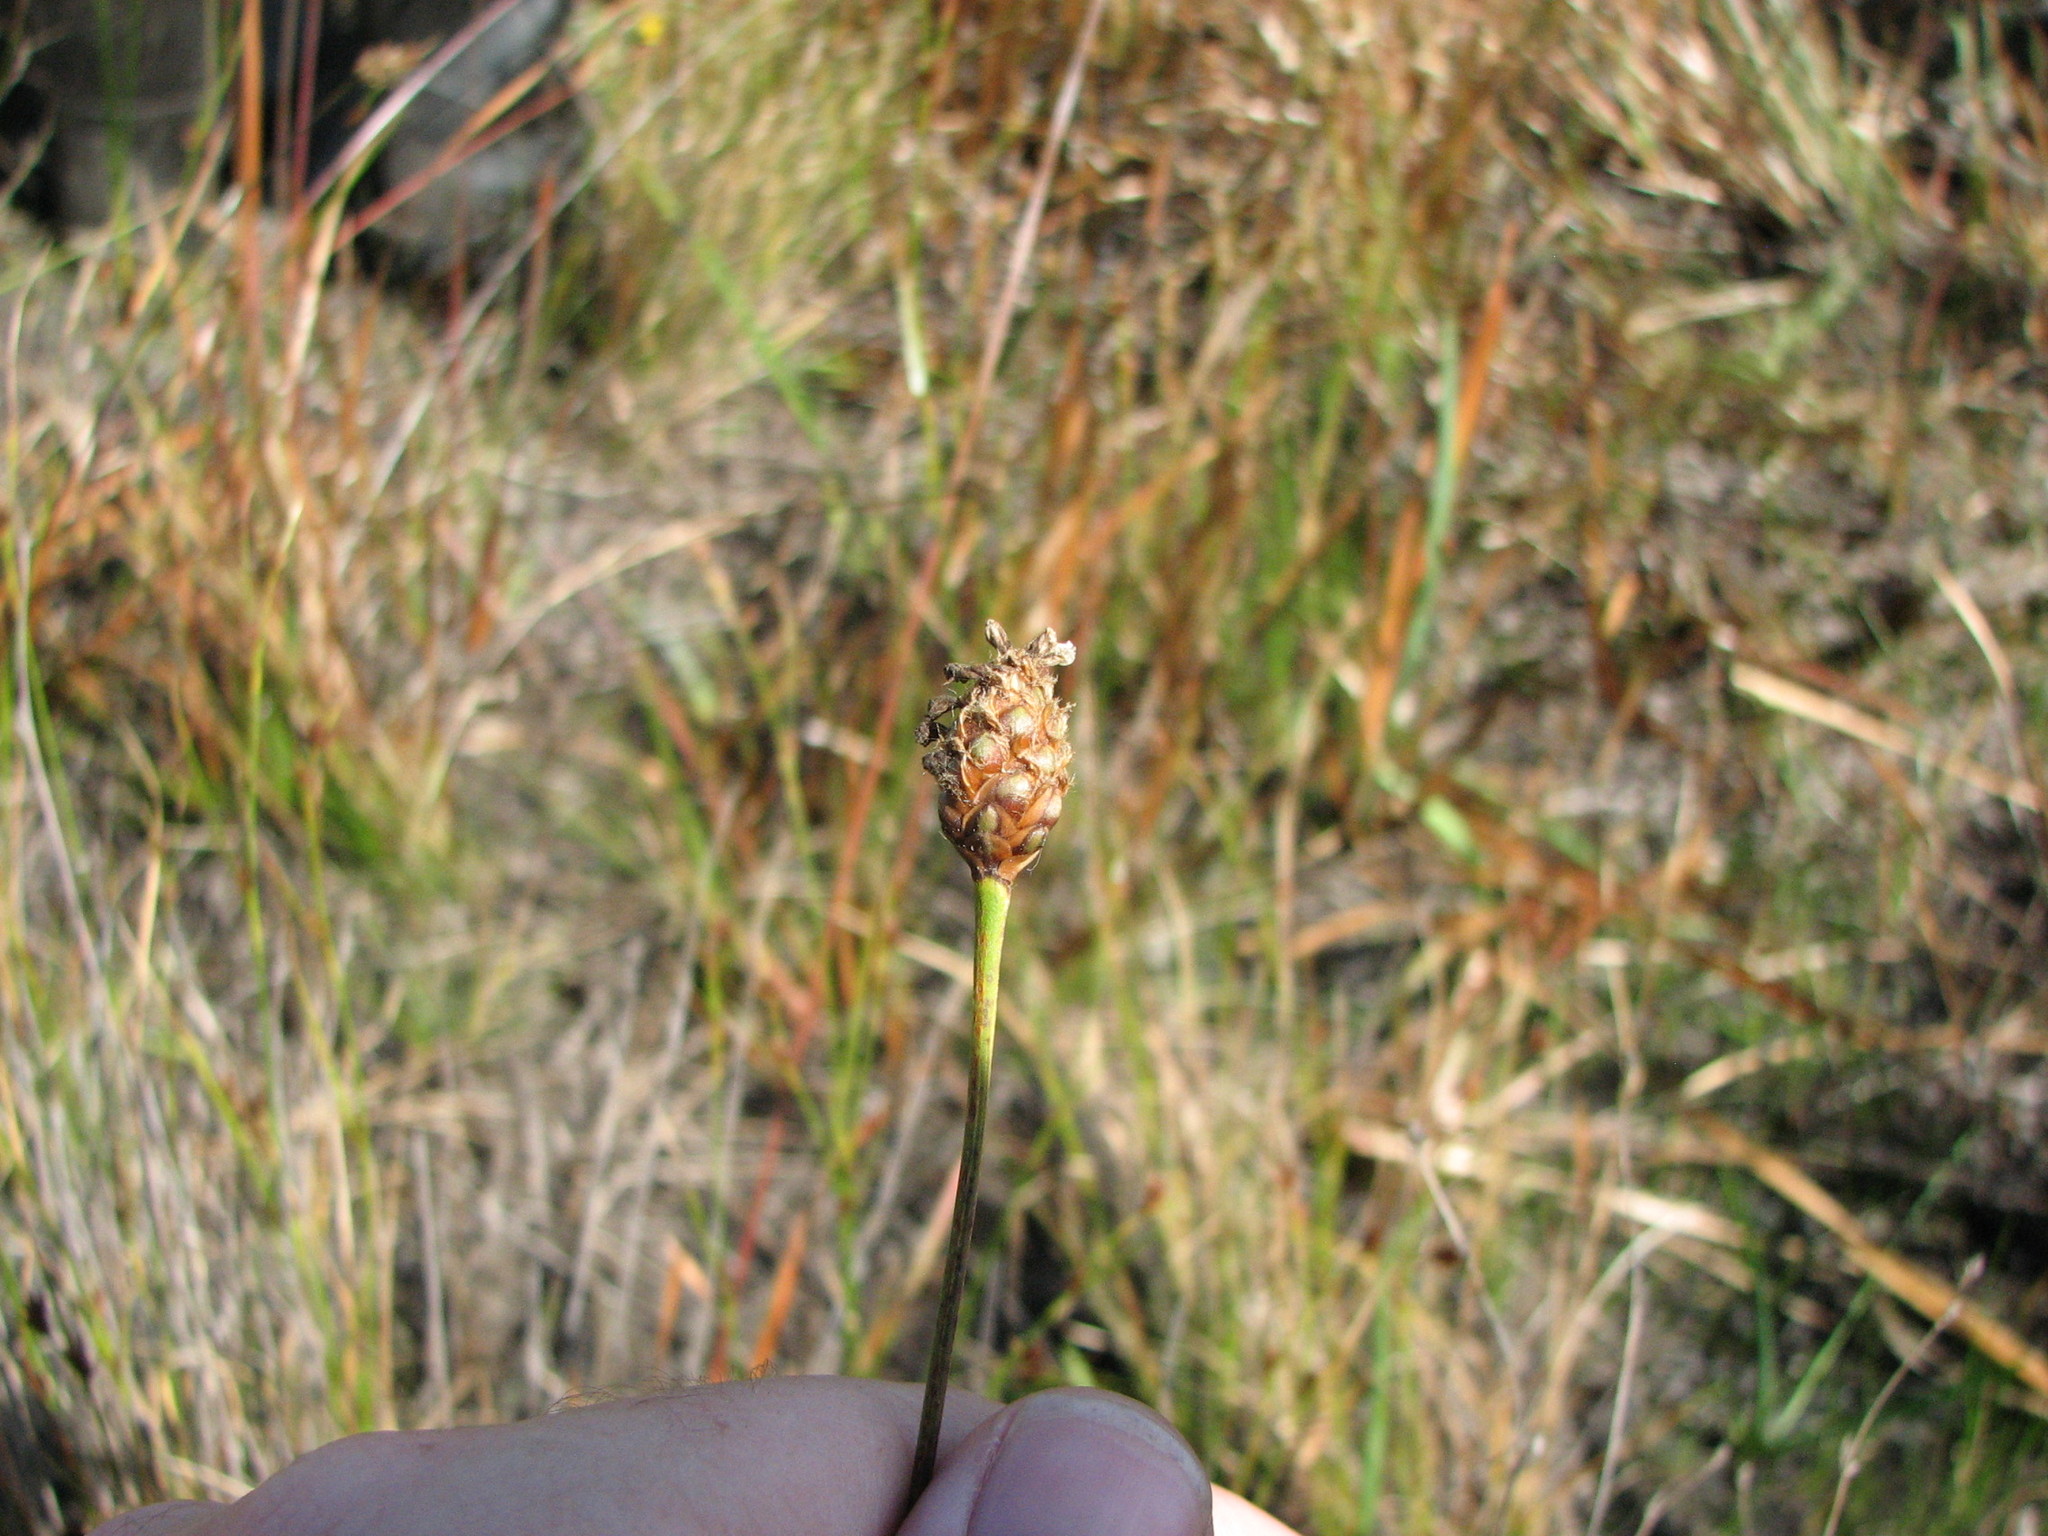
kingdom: Plantae
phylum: Tracheophyta
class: Liliopsida
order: Poales
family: Xyridaceae
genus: Xyris
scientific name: Xyris fimbriata
